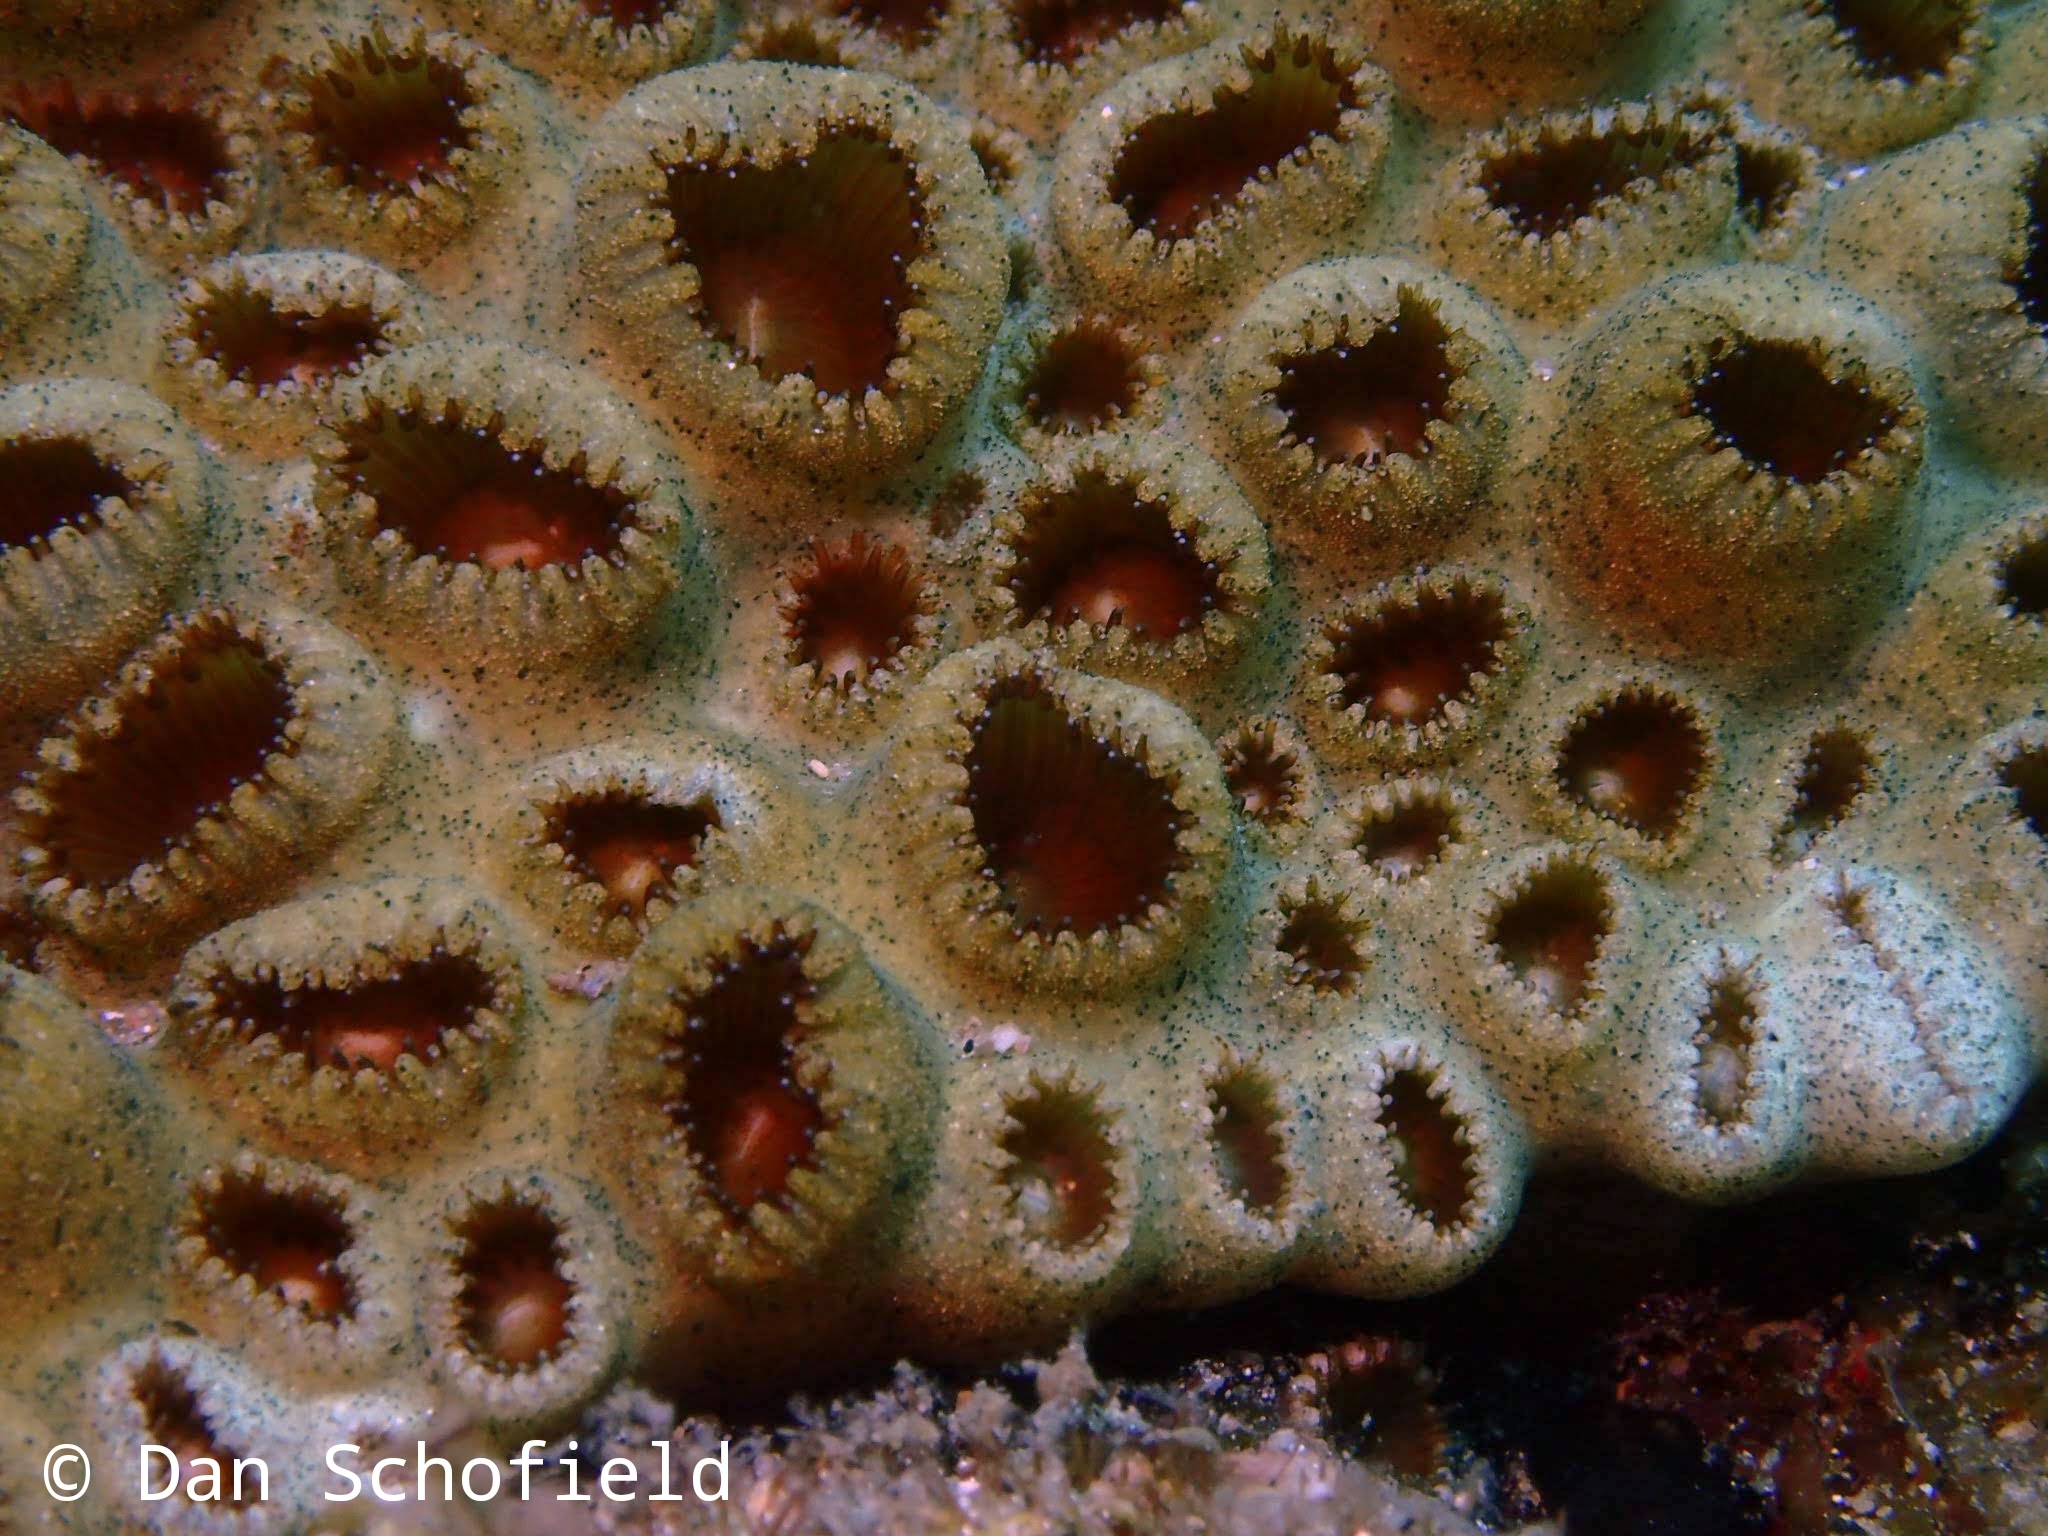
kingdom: Animalia
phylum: Cnidaria
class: Anthozoa
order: Zoantharia
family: Sphenopidae
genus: Palythoa
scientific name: Palythoa tuberculosa
